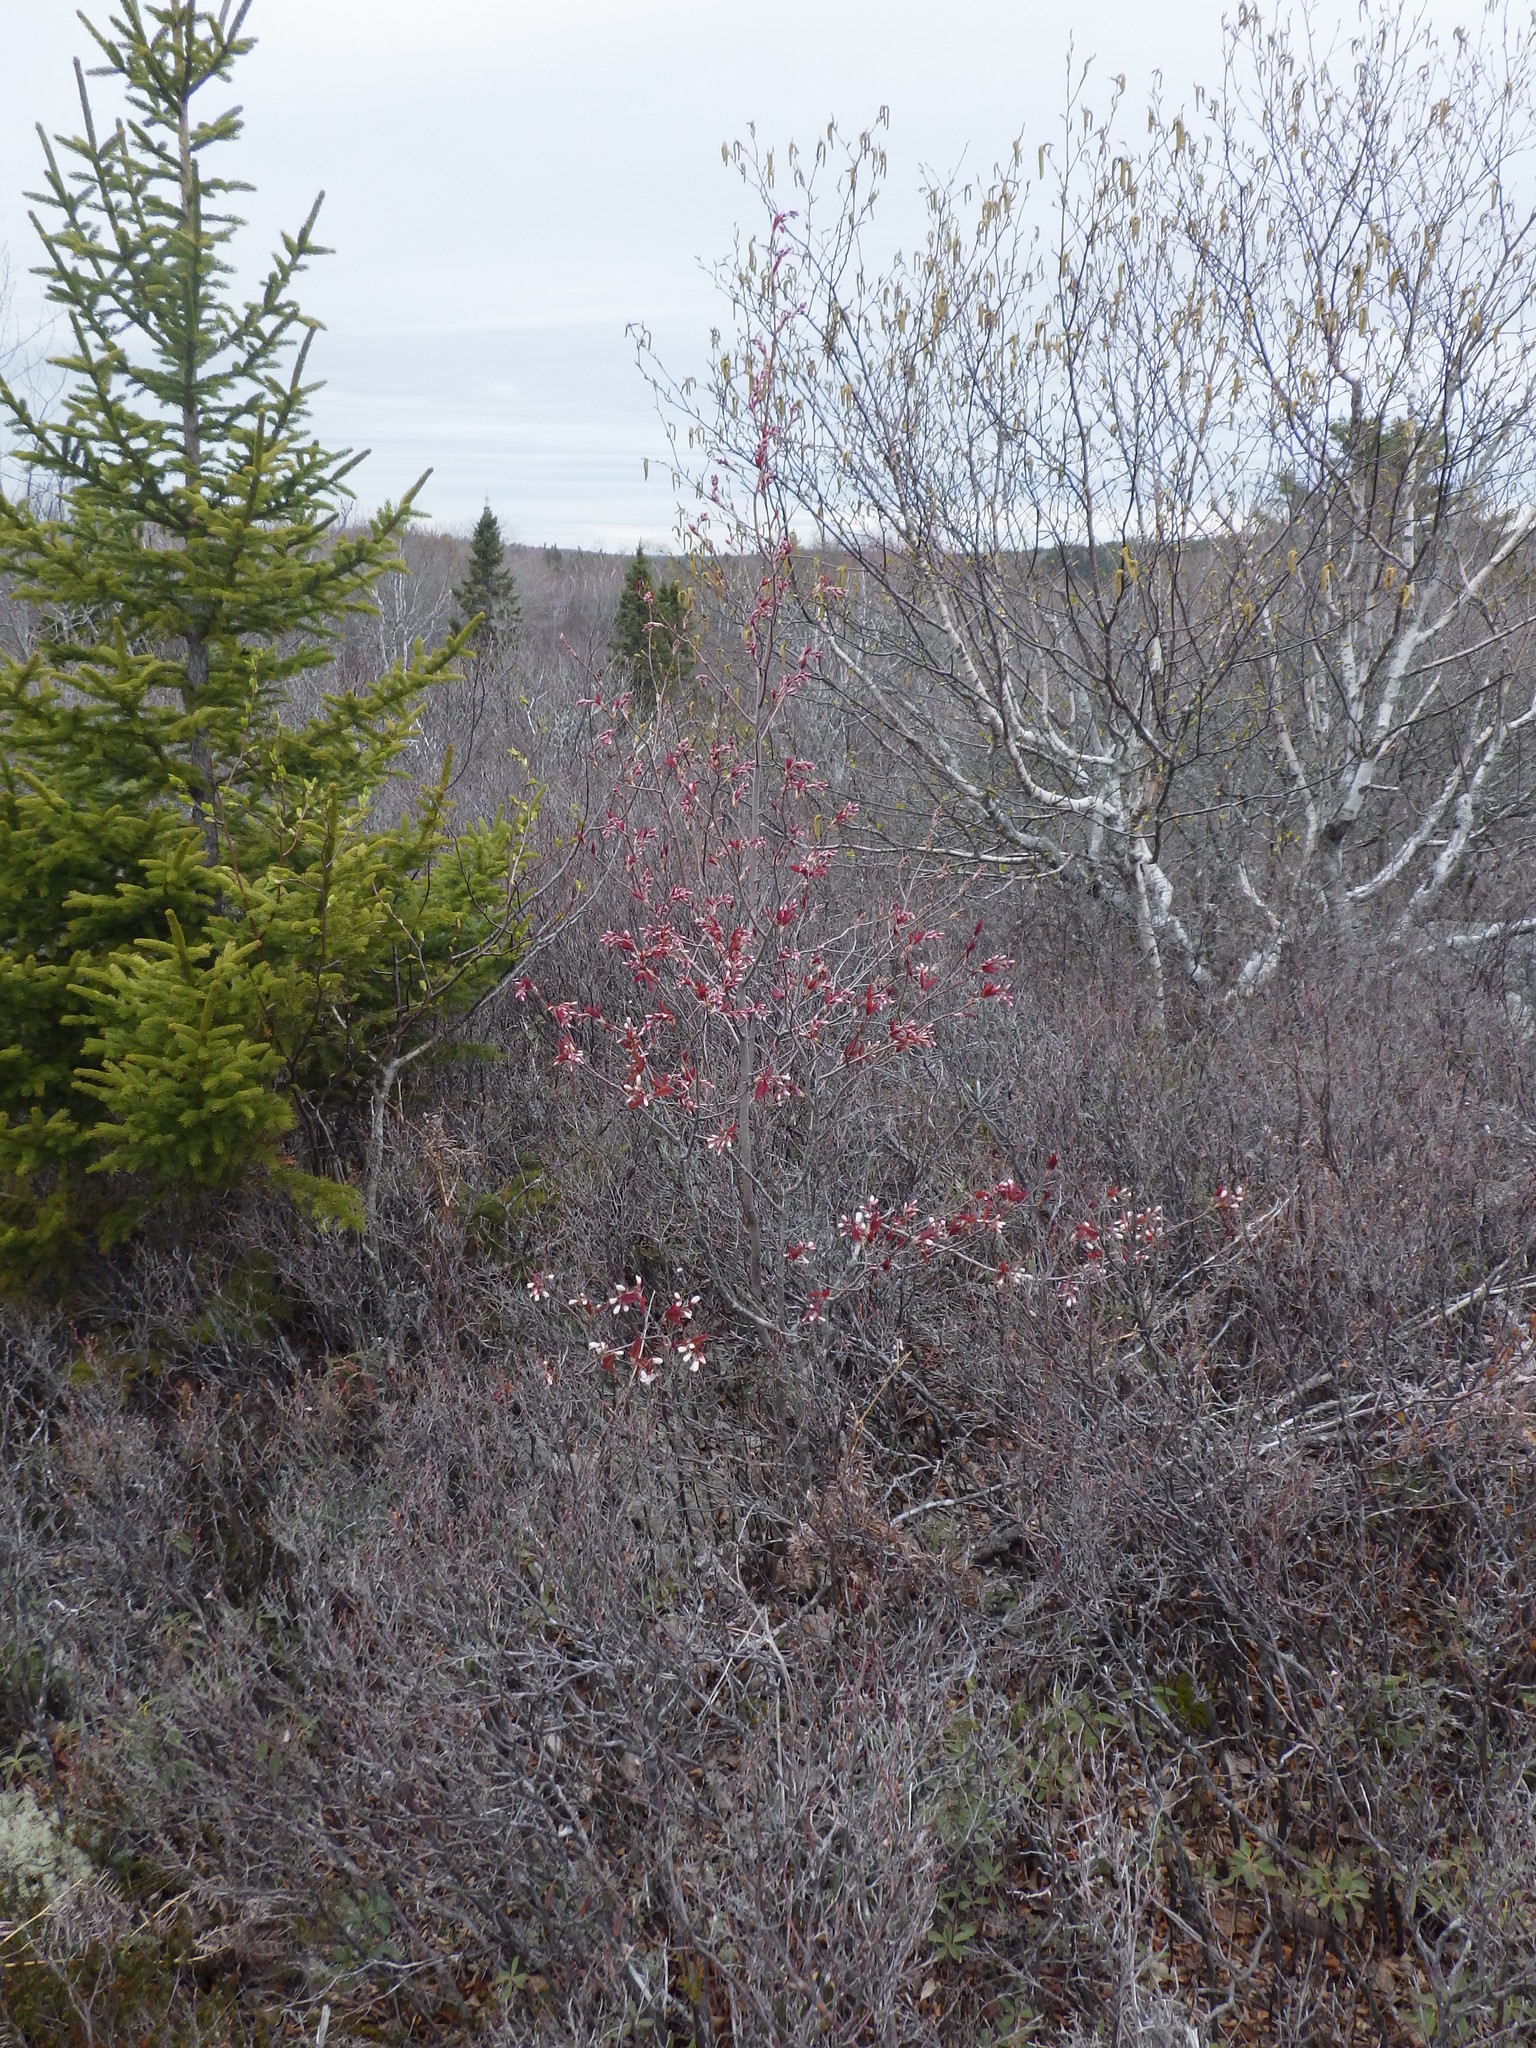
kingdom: Plantae
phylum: Tracheophyta
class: Magnoliopsida
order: Rosales
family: Rosaceae
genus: Amelanchier
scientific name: Amelanchier laevis
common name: Allegheny serviceberry
